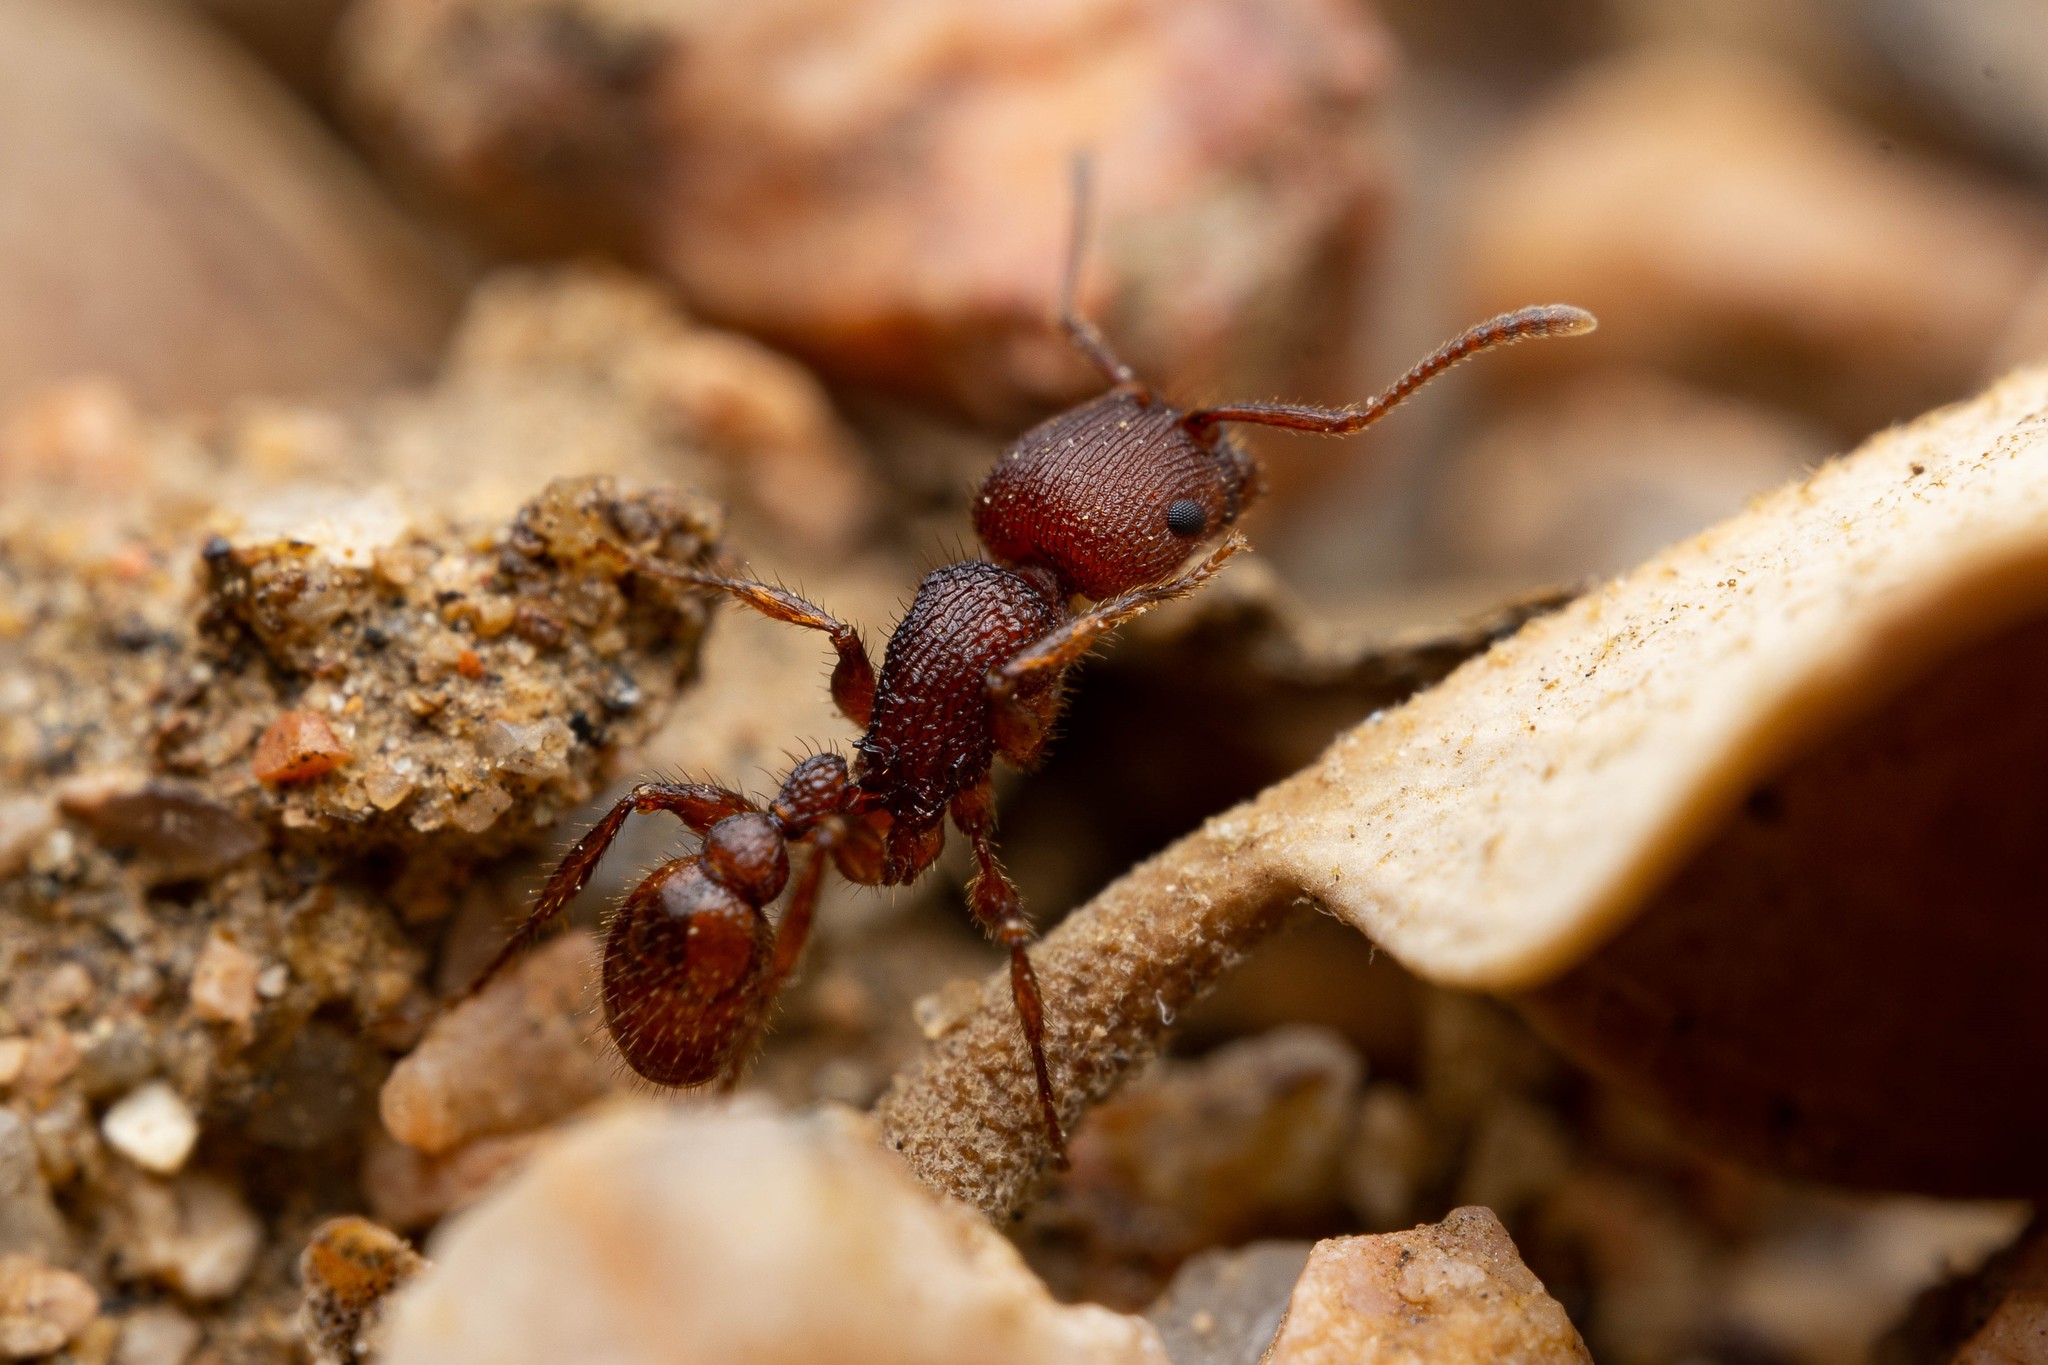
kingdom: Animalia
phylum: Arthropoda
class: Insecta
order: Hymenoptera
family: Formicidae
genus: Pogonomyrmex
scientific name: Pogonomyrmex imberbiculus
